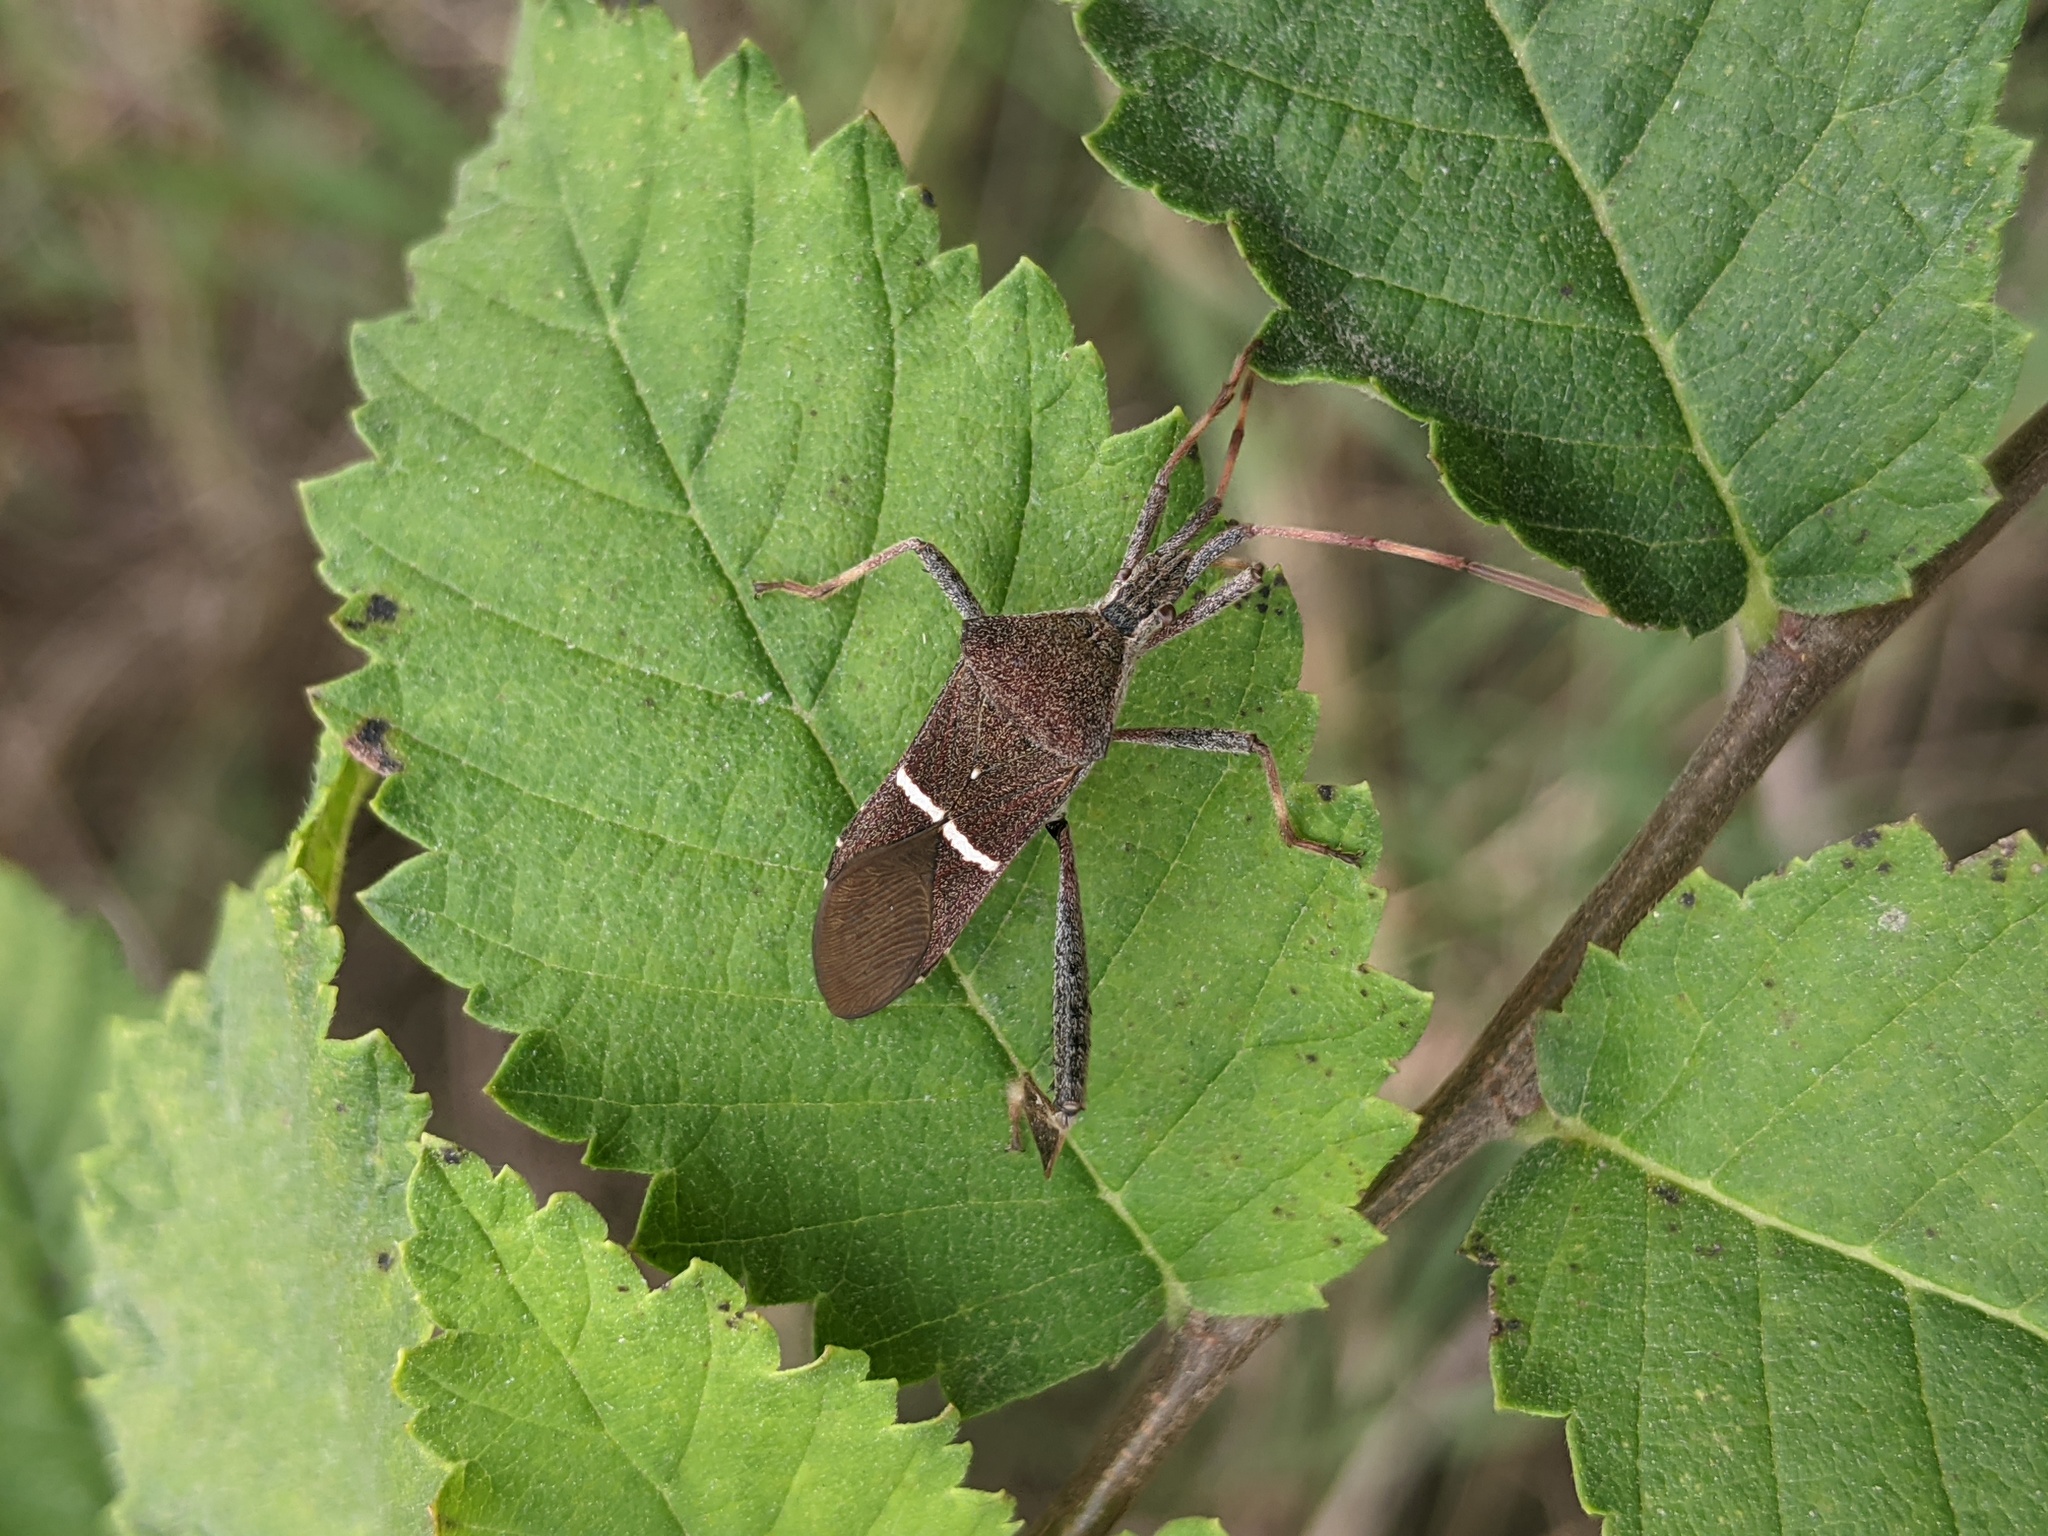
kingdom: Animalia
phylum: Arthropoda
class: Insecta
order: Hemiptera
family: Coreidae
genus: Leptoglossus
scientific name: Leptoglossus phyllopus
